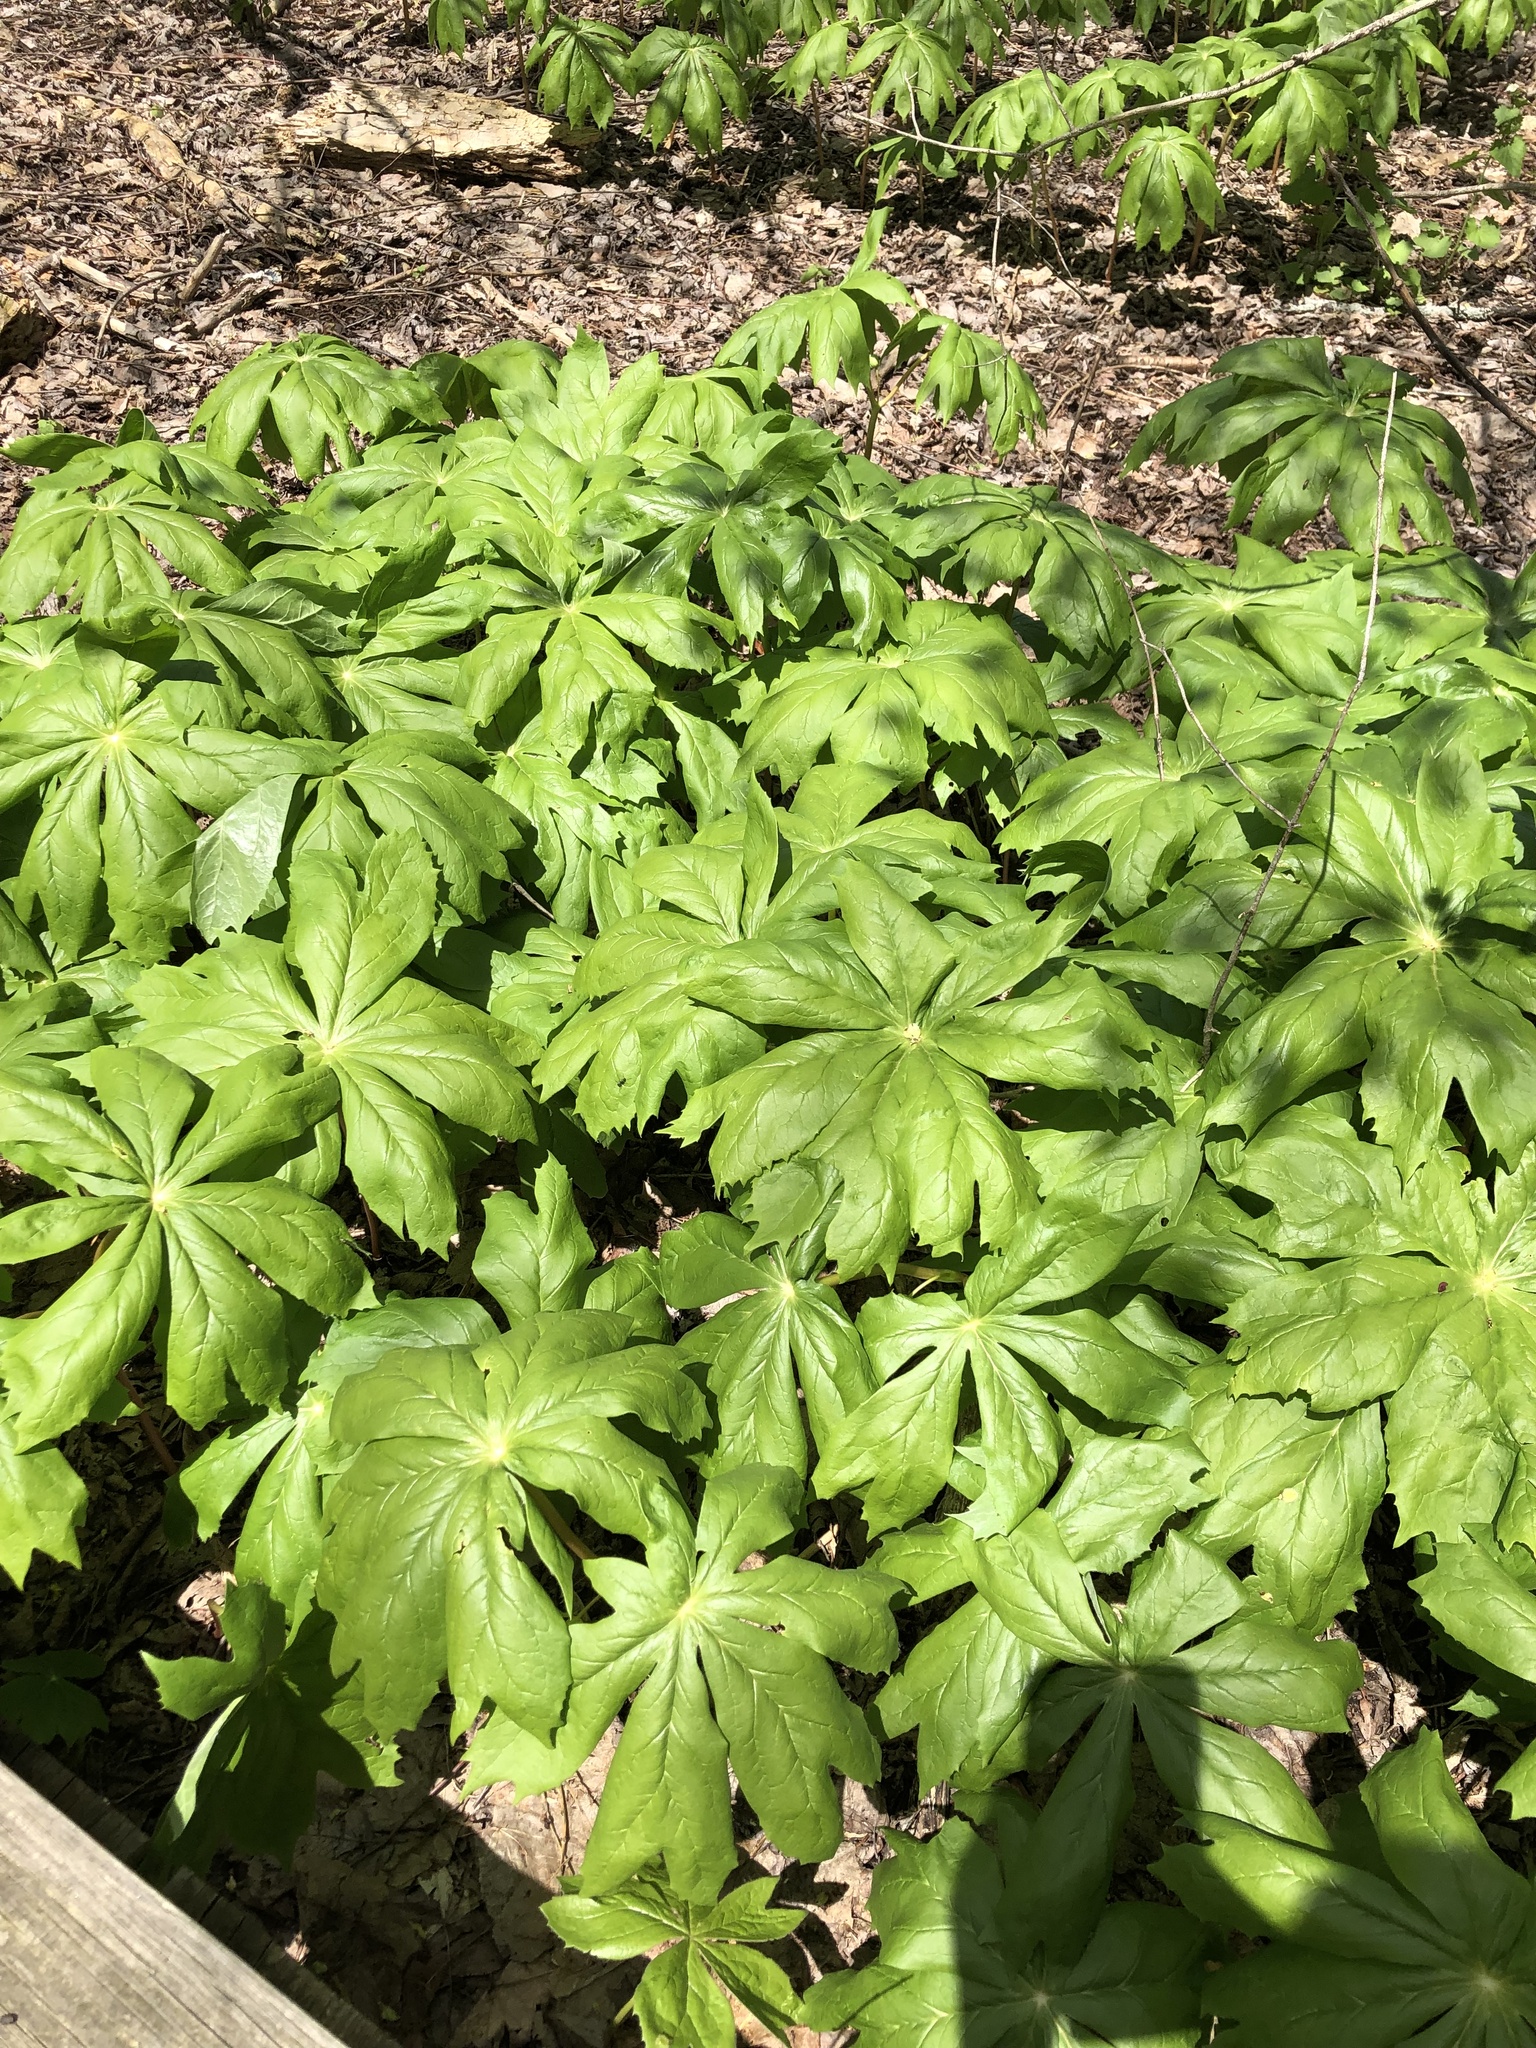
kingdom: Plantae
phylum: Tracheophyta
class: Magnoliopsida
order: Ranunculales
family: Berberidaceae
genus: Podophyllum
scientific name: Podophyllum peltatum
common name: Wild mandrake
